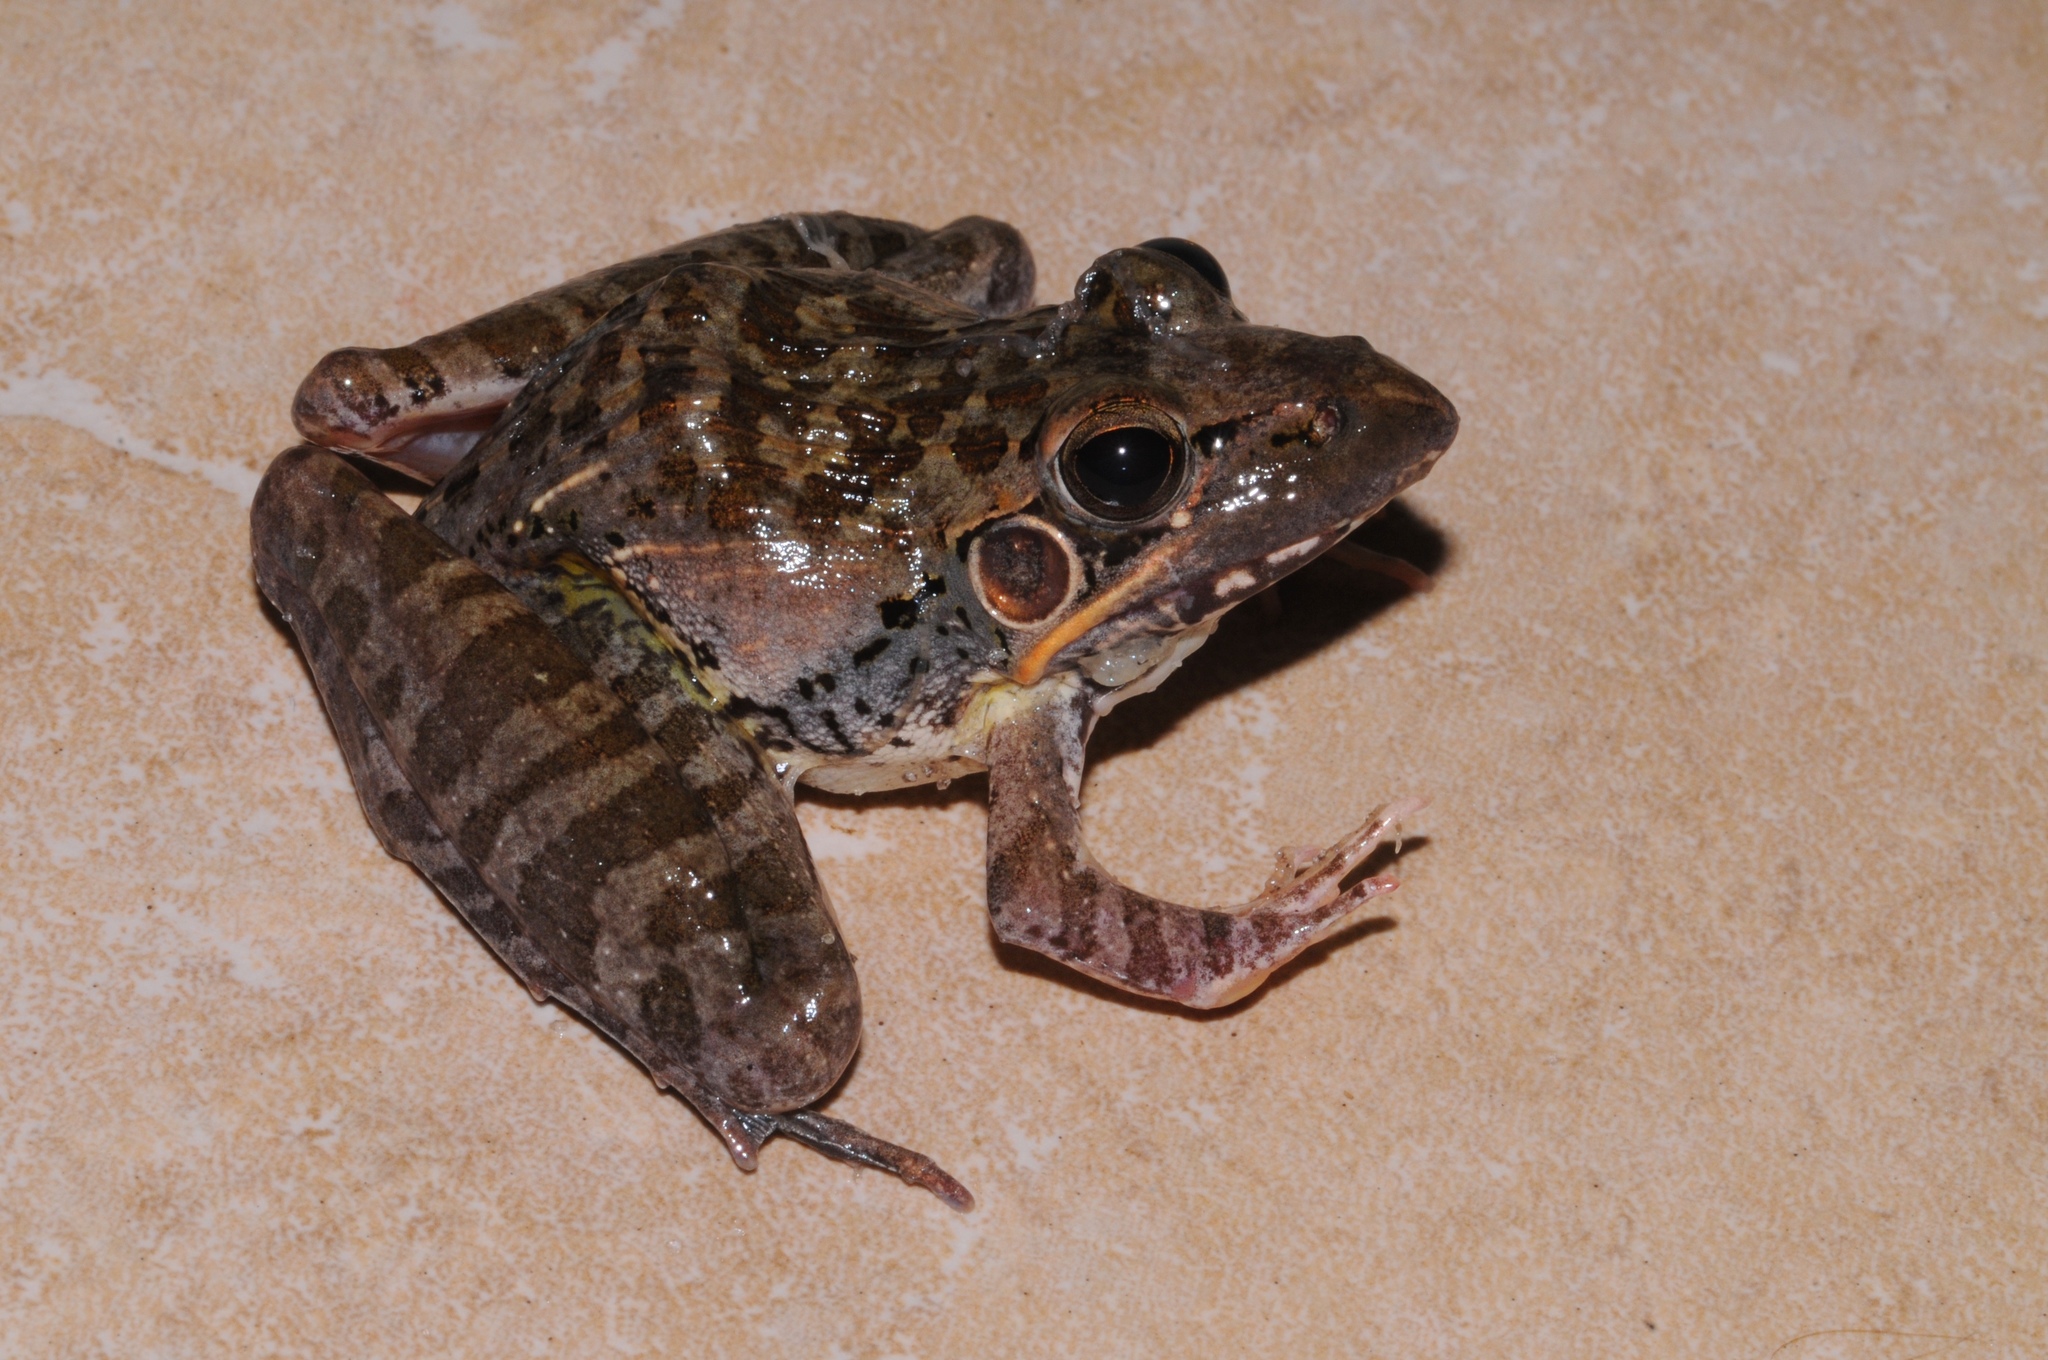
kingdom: Animalia
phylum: Chordata
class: Amphibia
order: Anura
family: Ptychadenidae
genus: Ptychadena
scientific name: Ptychadena oxyrhynchus
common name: Sharp-nosed ridged frog
